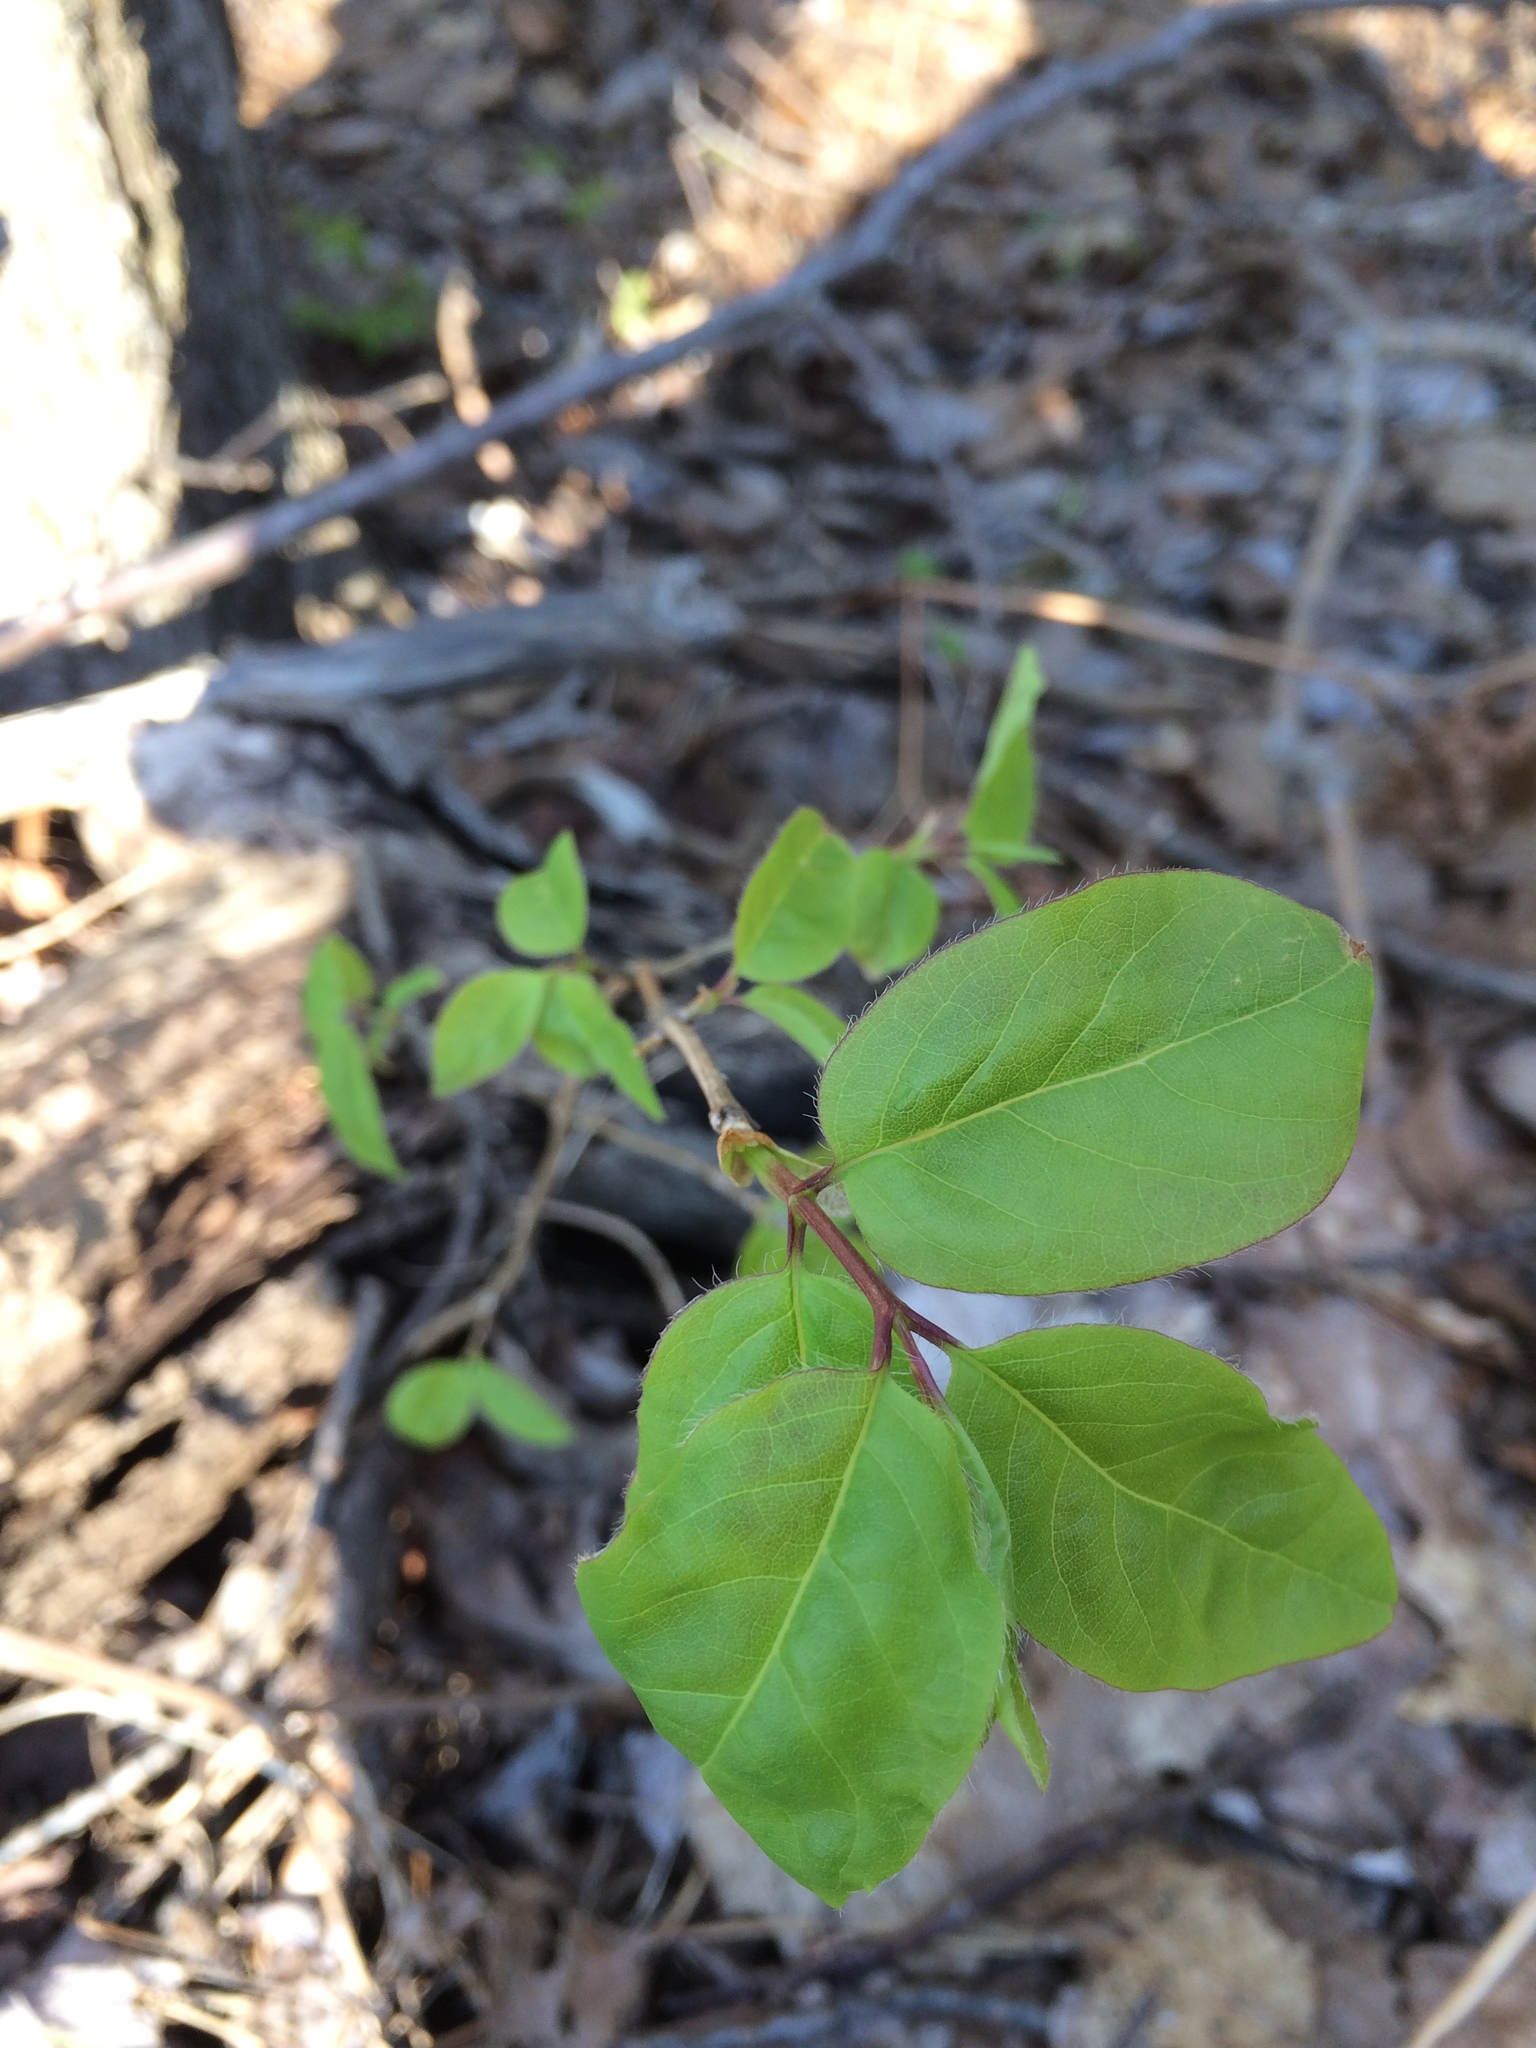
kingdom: Plantae
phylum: Tracheophyta
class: Magnoliopsida
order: Dipsacales
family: Caprifoliaceae
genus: Lonicera
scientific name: Lonicera canadensis
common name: American fly-honeysuckle
